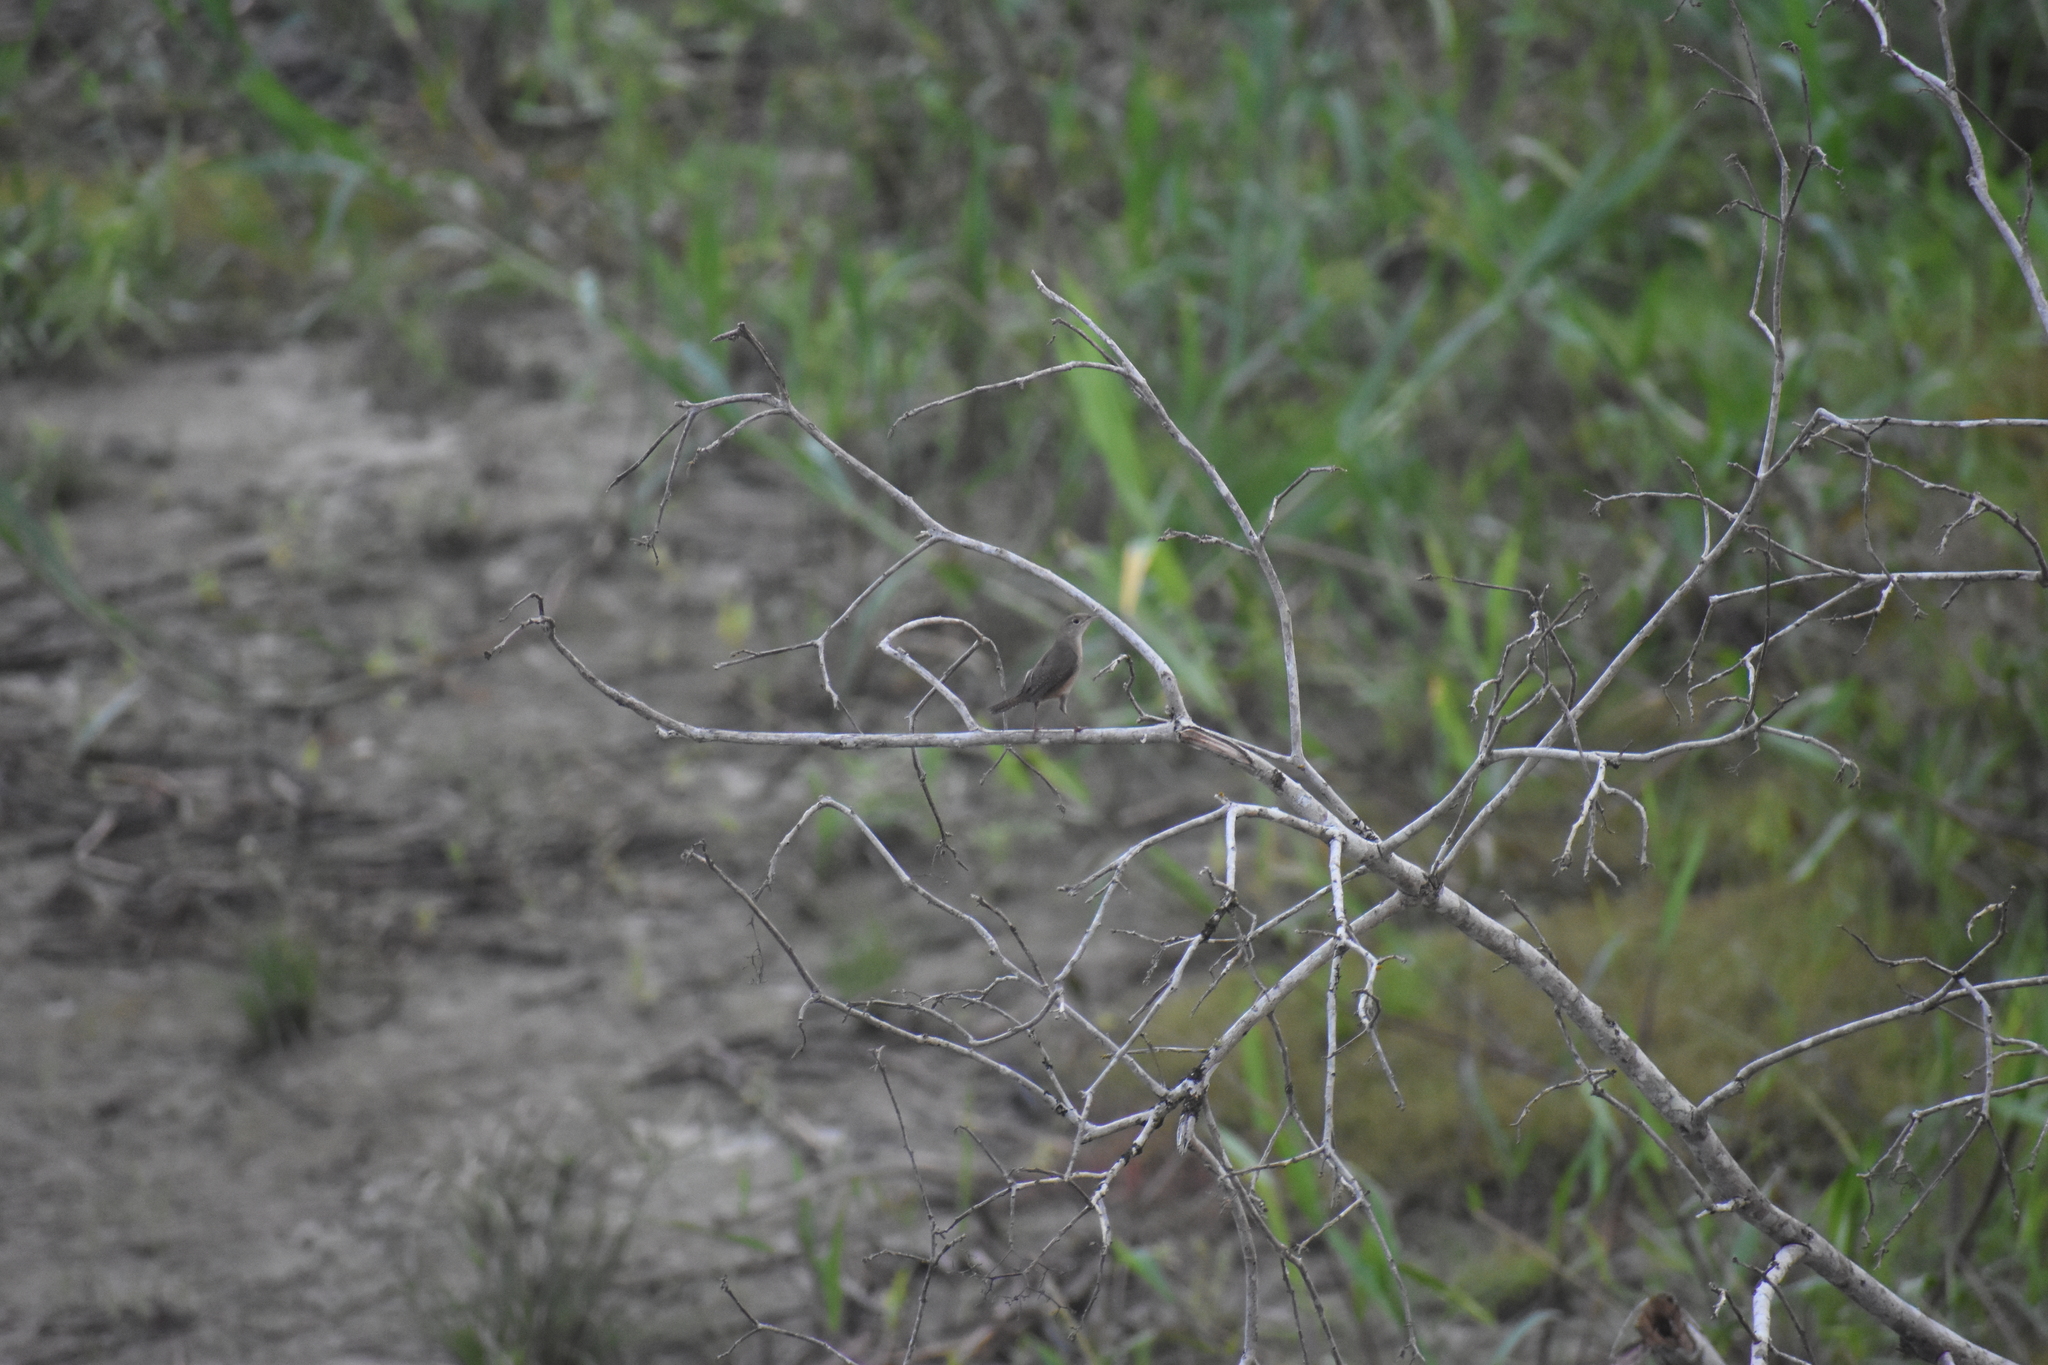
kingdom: Animalia
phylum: Chordata
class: Aves
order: Passeriformes
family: Troglodytidae
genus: Troglodytes
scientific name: Troglodytes aedon
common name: House wren
